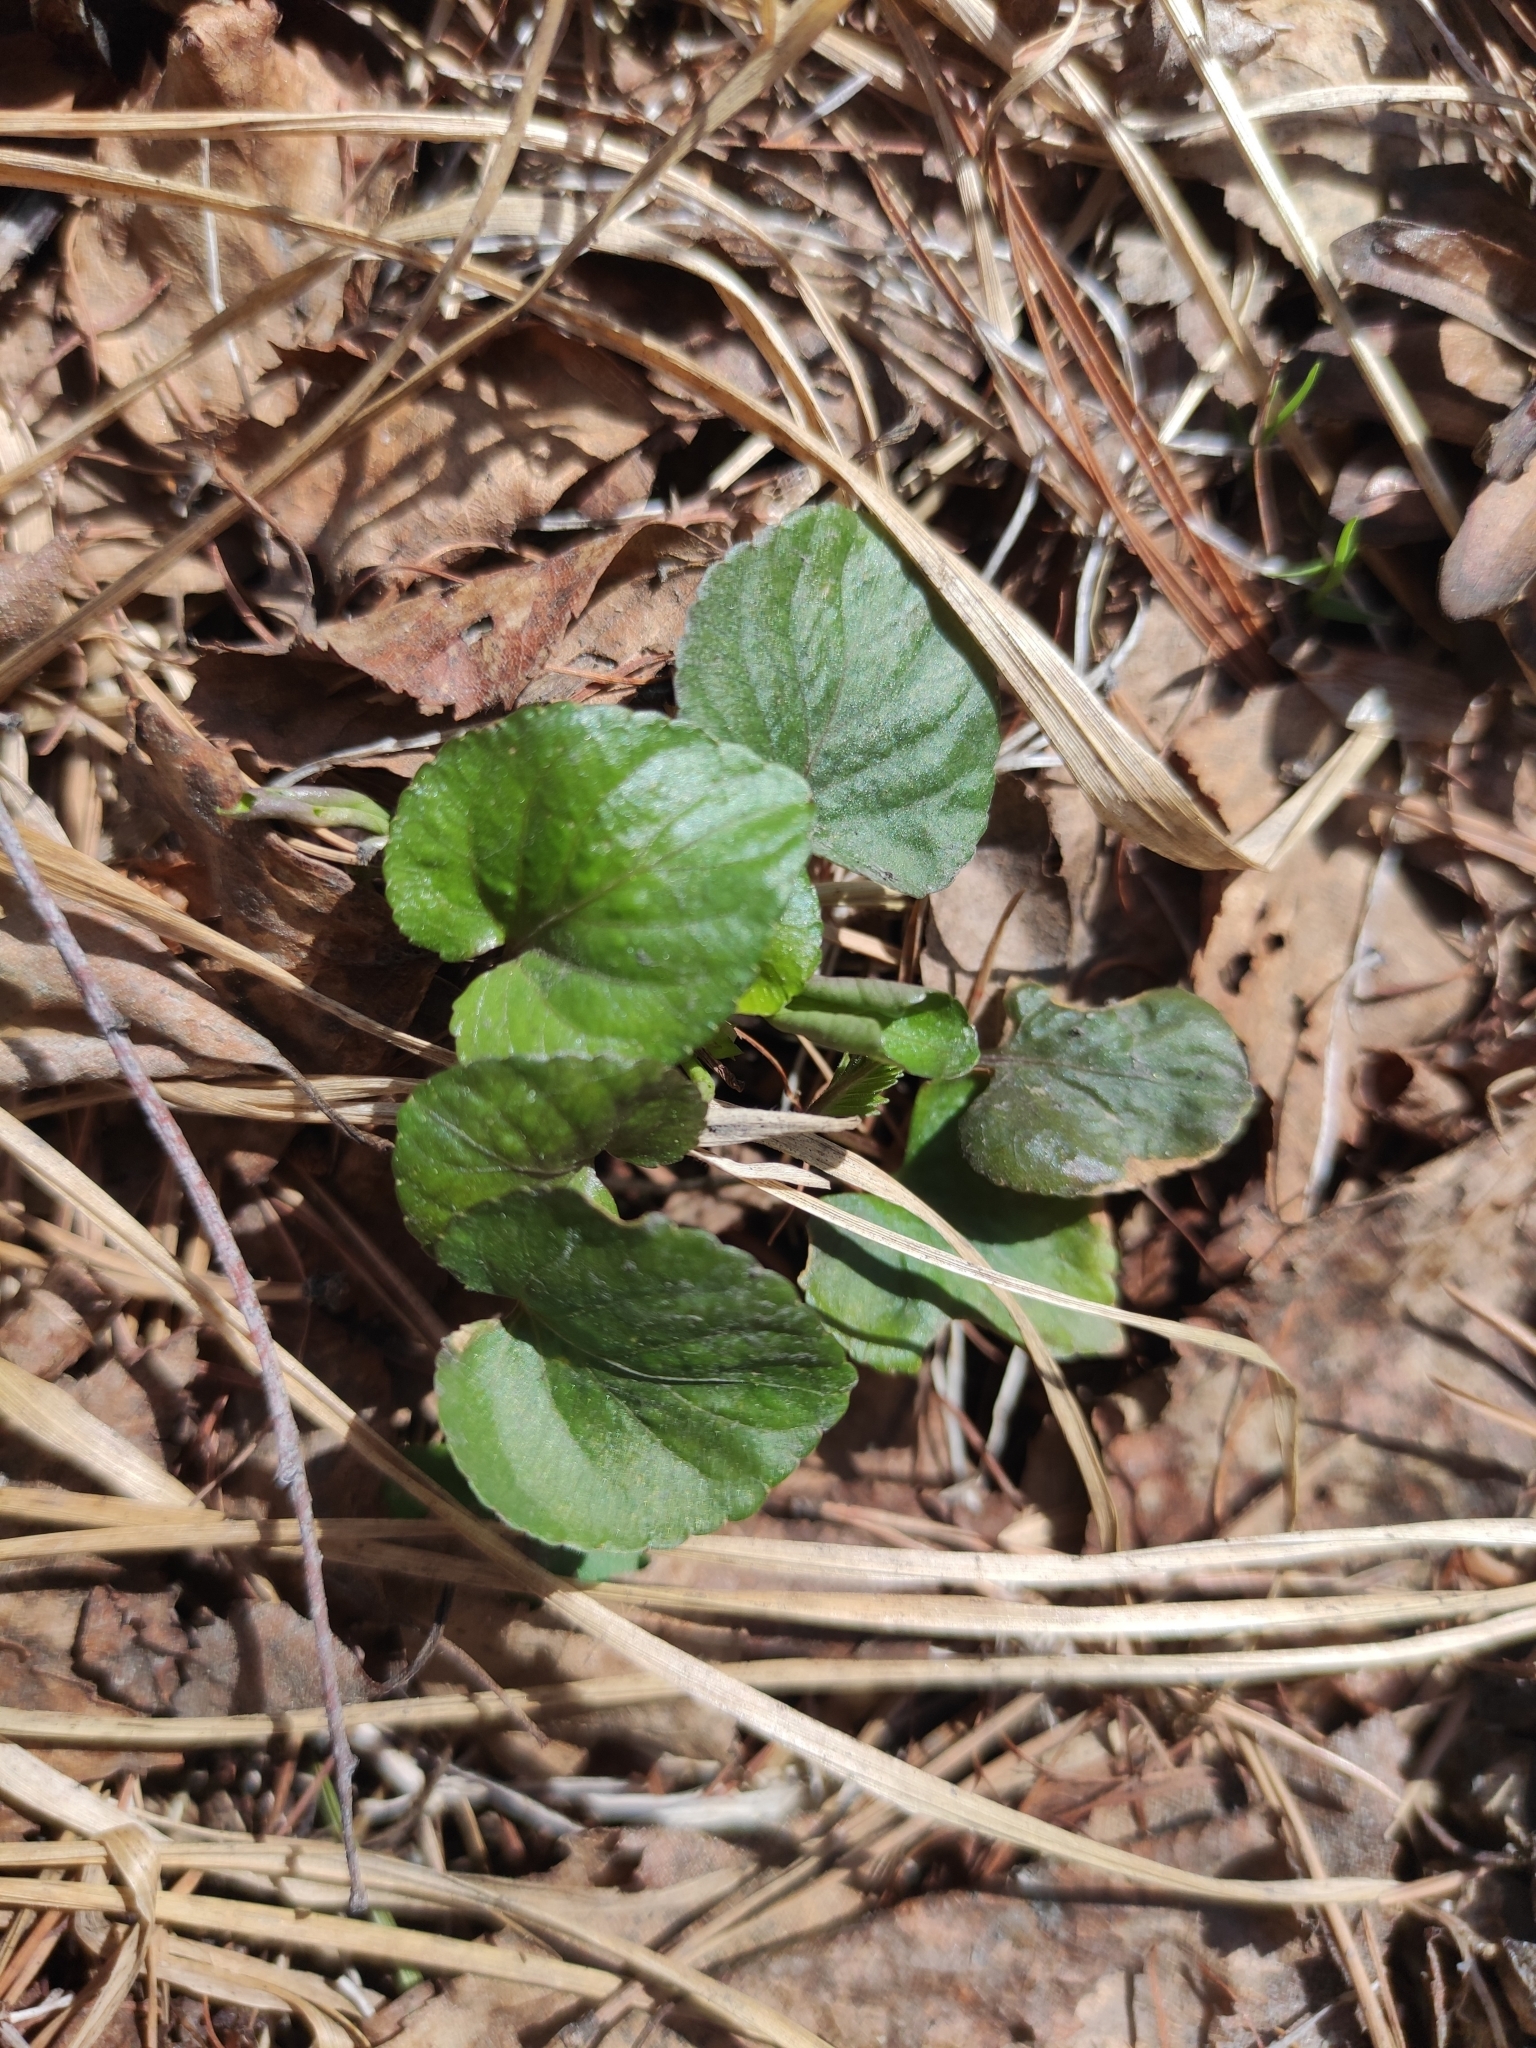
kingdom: Plantae
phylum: Tracheophyta
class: Magnoliopsida
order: Malpighiales
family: Violaceae
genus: Viola
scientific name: Viola selkirkii
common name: Selkirk's violet
